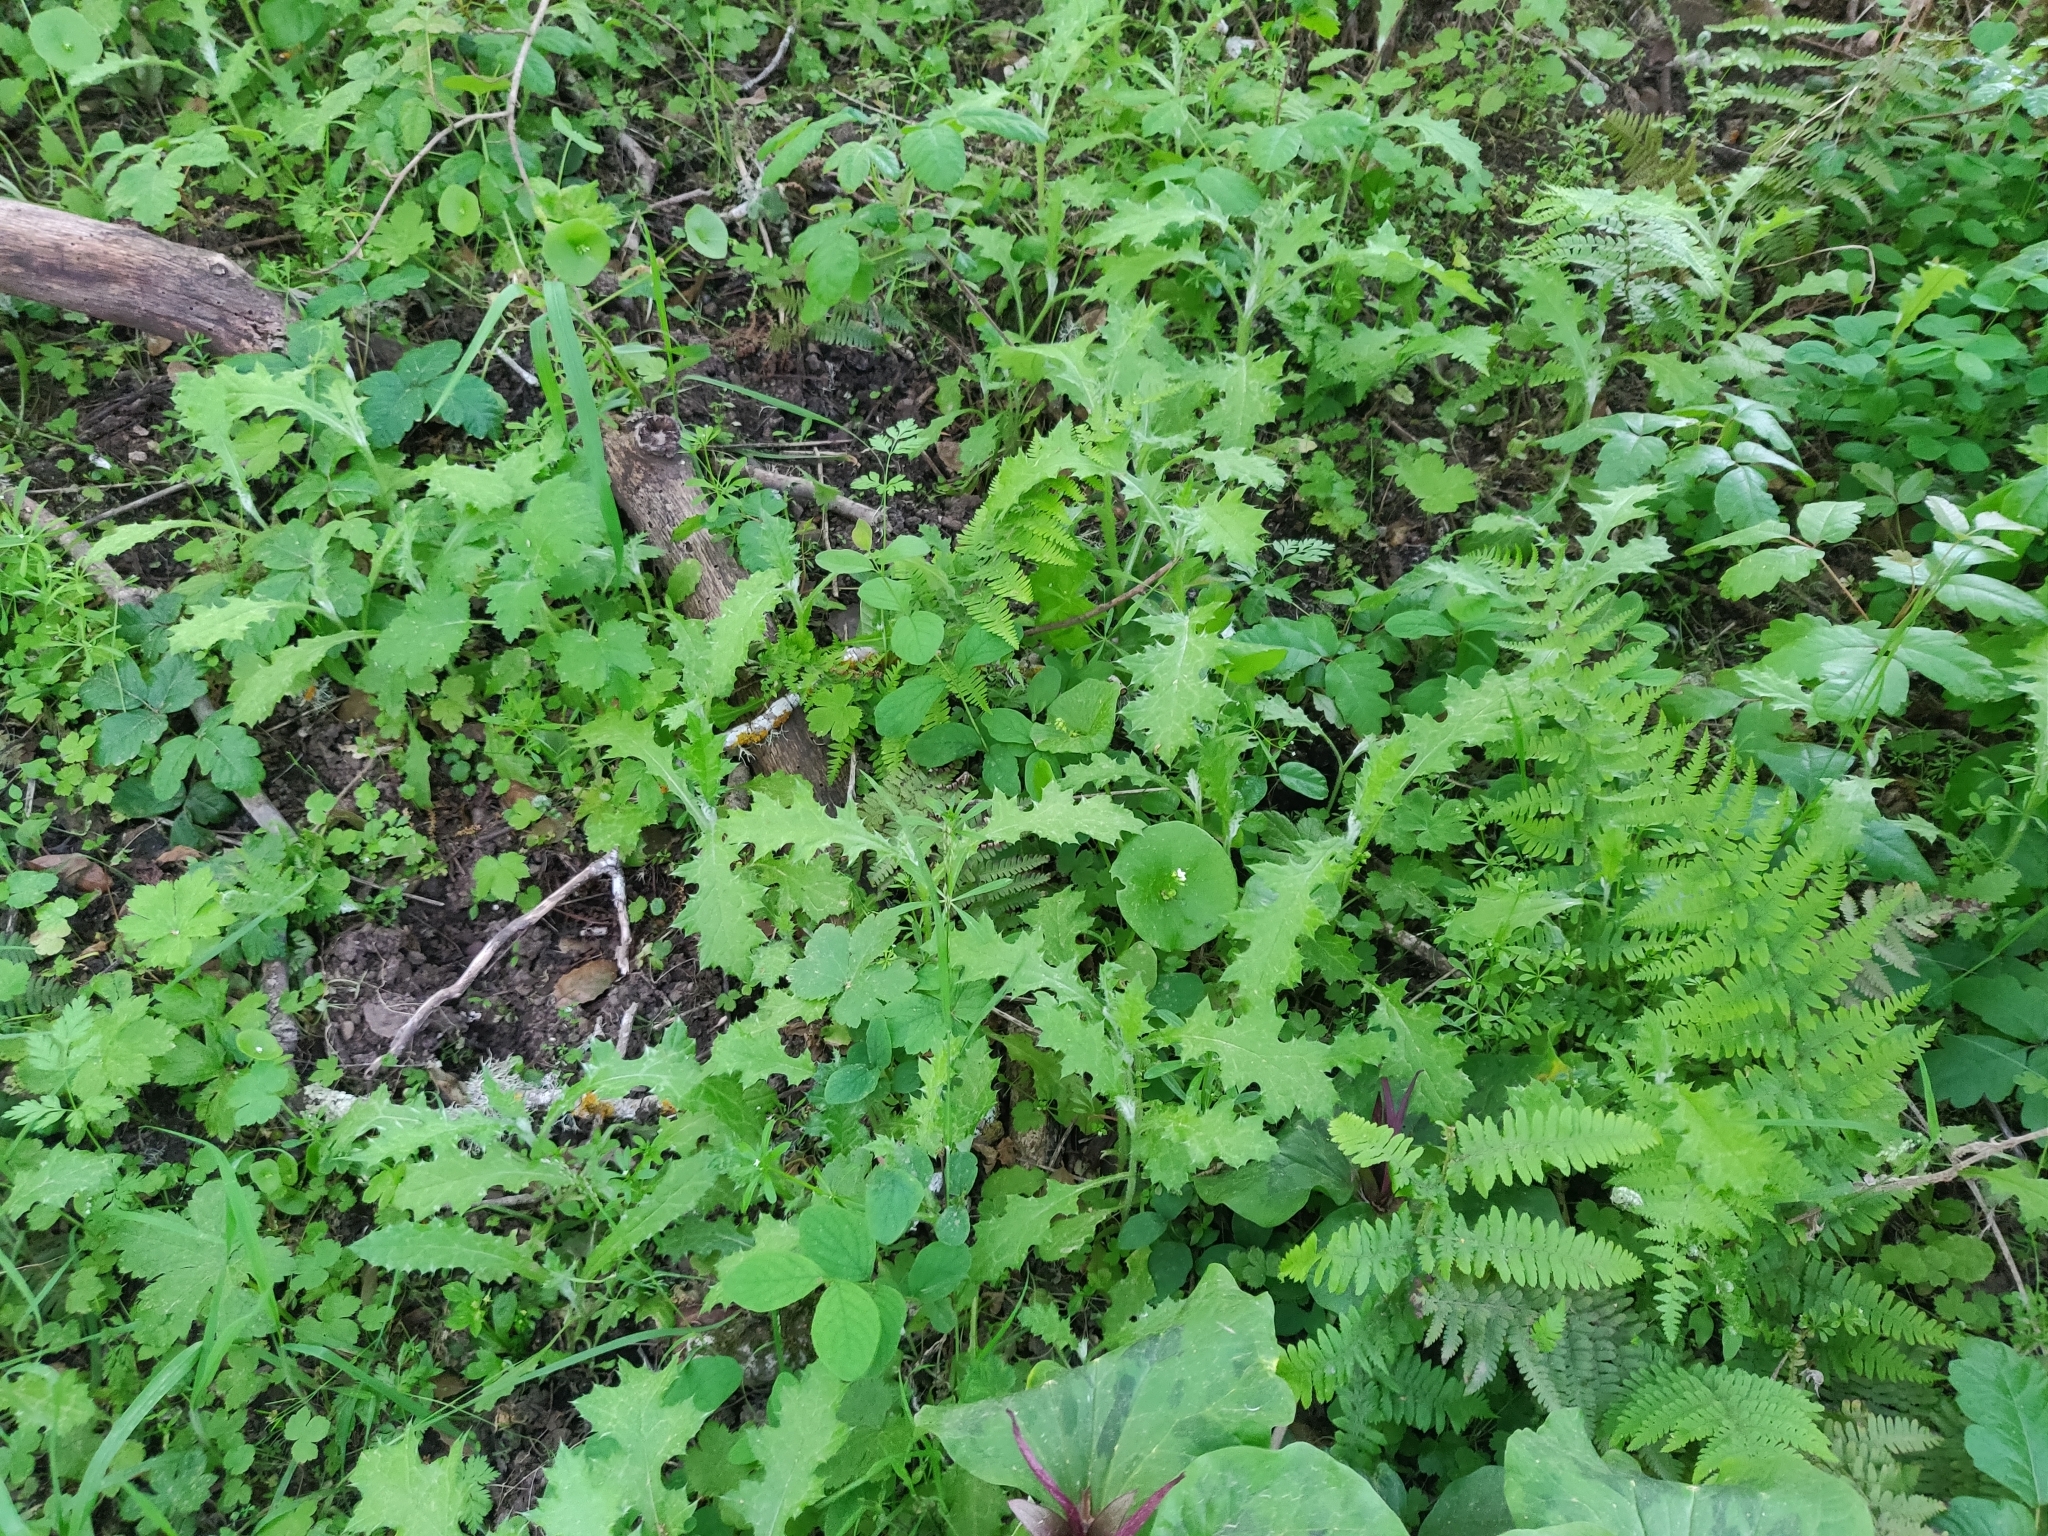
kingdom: Plantae
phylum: Tracheophyta
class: Magnoliopsida
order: Caryophyllales
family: Montiaceae
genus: Claytonia
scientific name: Claytonia perfoliata
